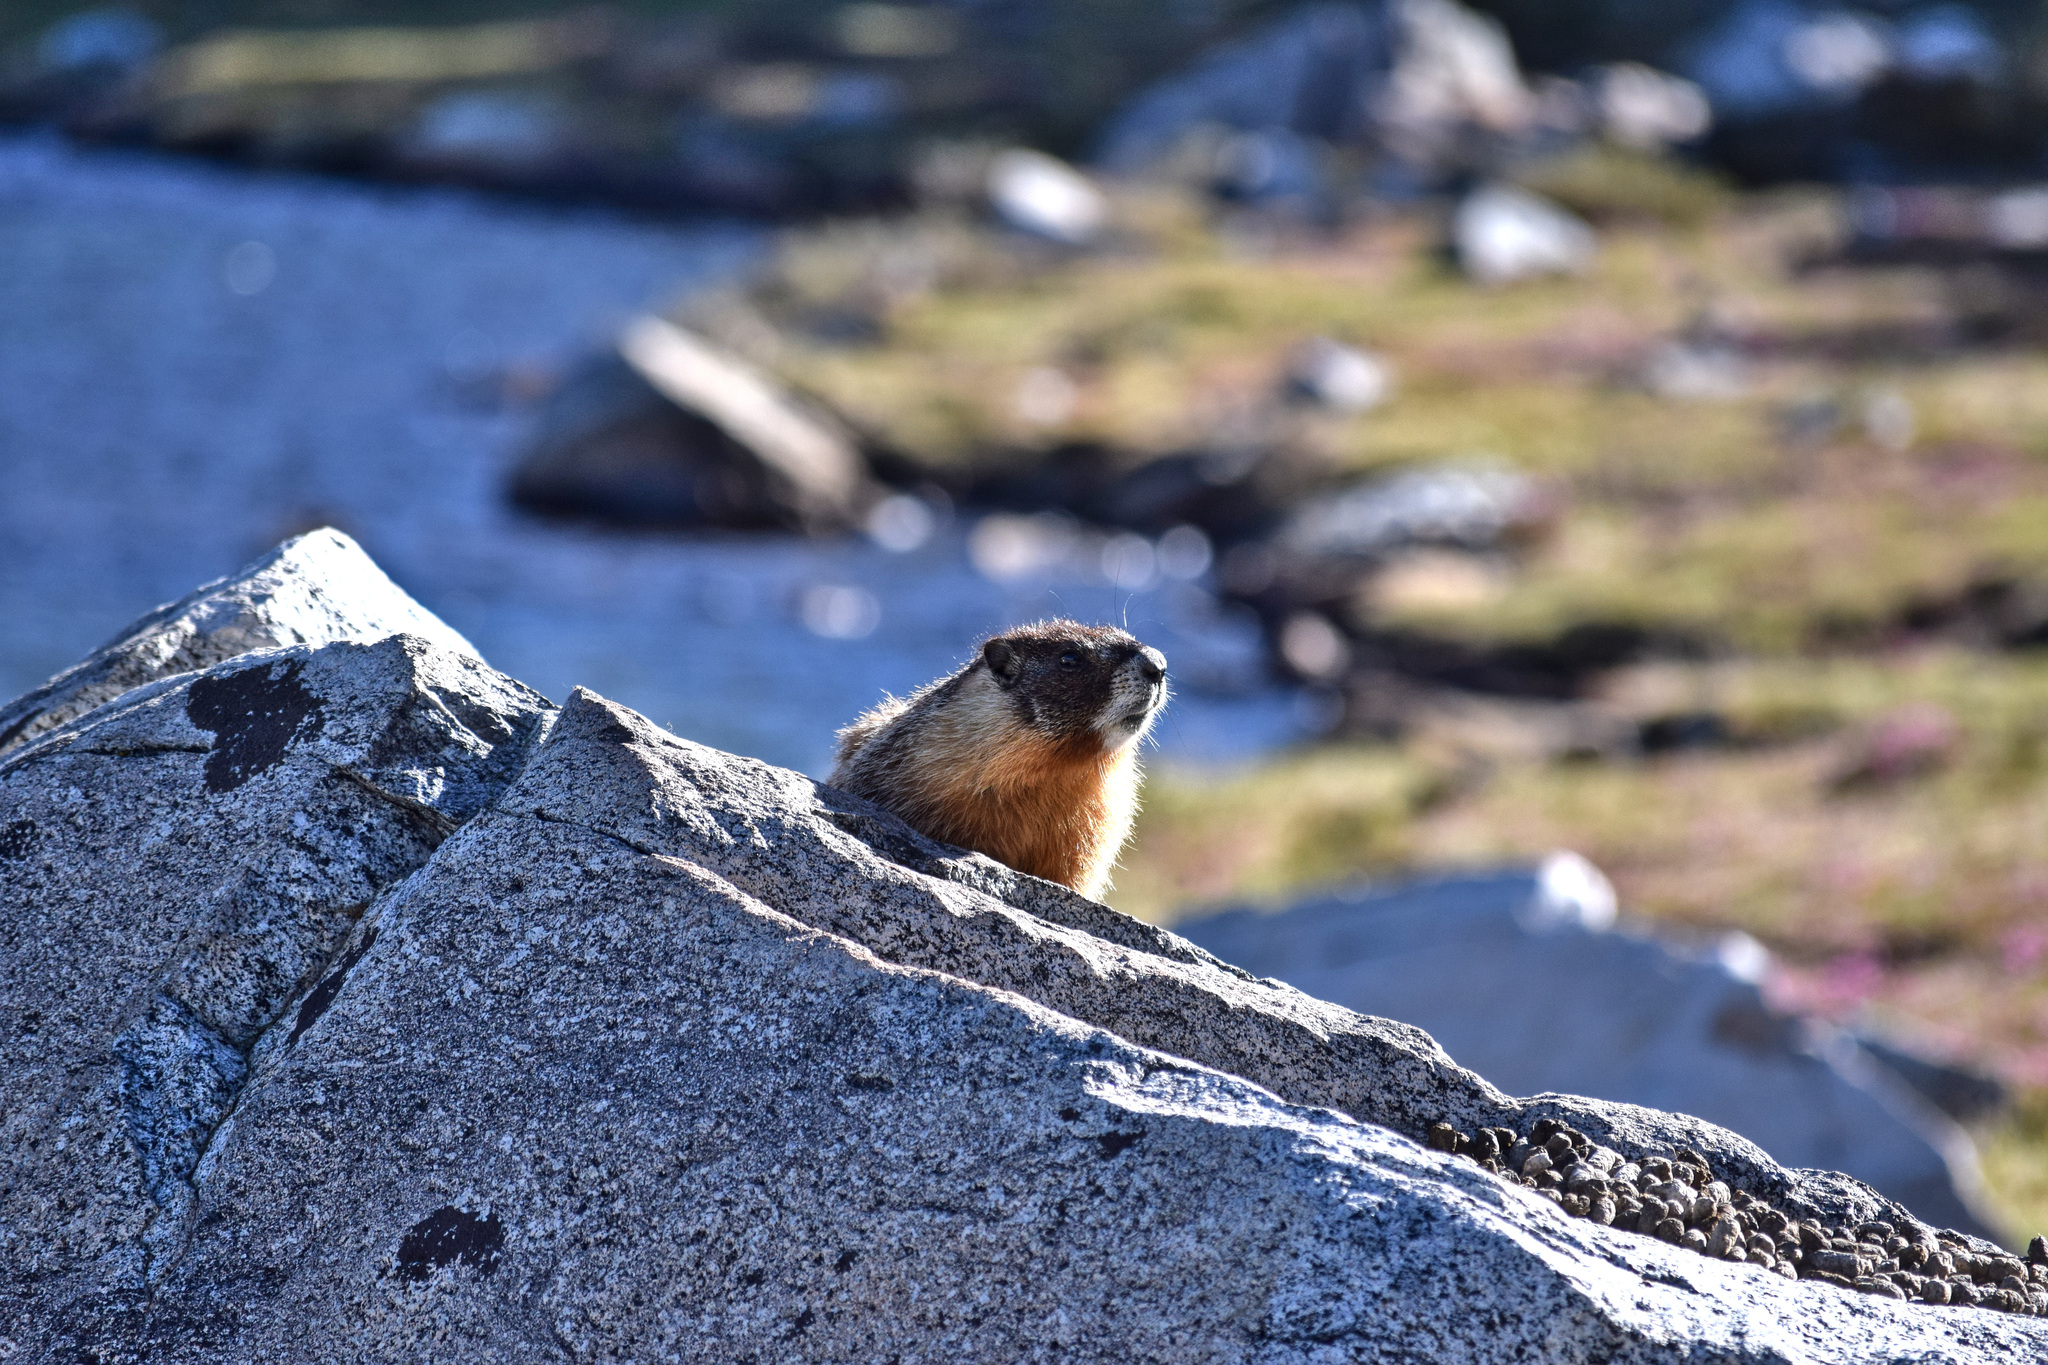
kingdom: Animalia
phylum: Chordata
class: Mammalia
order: Rodentia
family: Sciuridae
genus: Marmota
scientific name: Marmota flaviventris
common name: Yellow-bellied marmot
